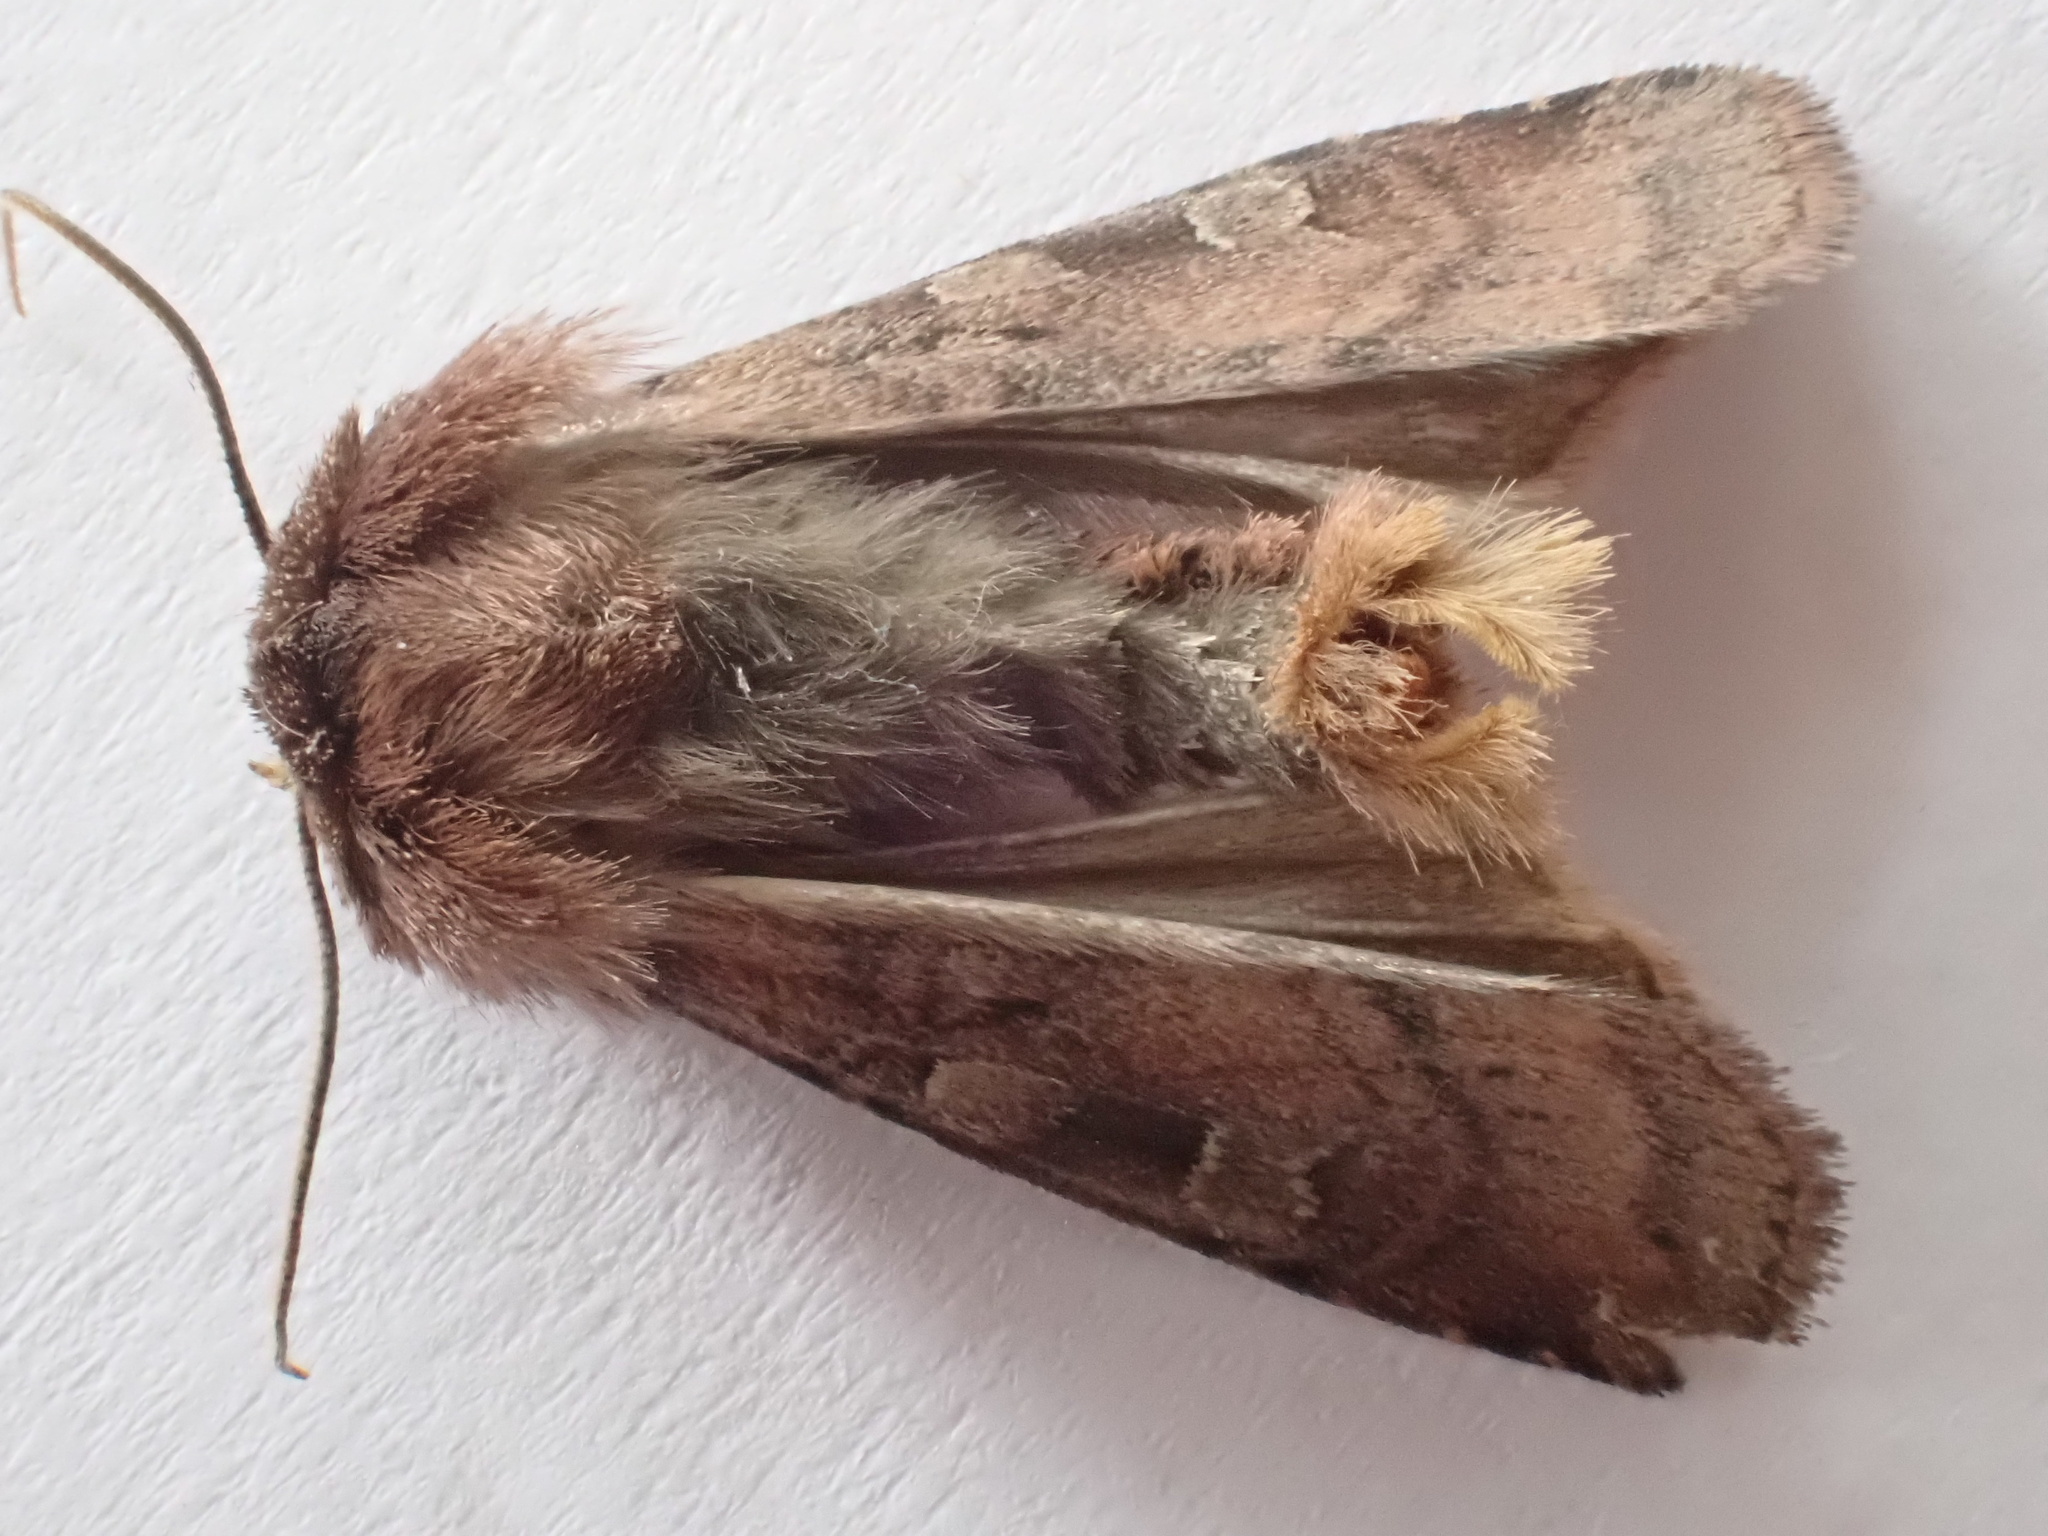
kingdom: Animalia
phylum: Arthropoda
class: Insecta
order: Lepidoptera
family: Noctuidae
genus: Diarsia
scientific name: Diarsia rubi
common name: Small square-spot
